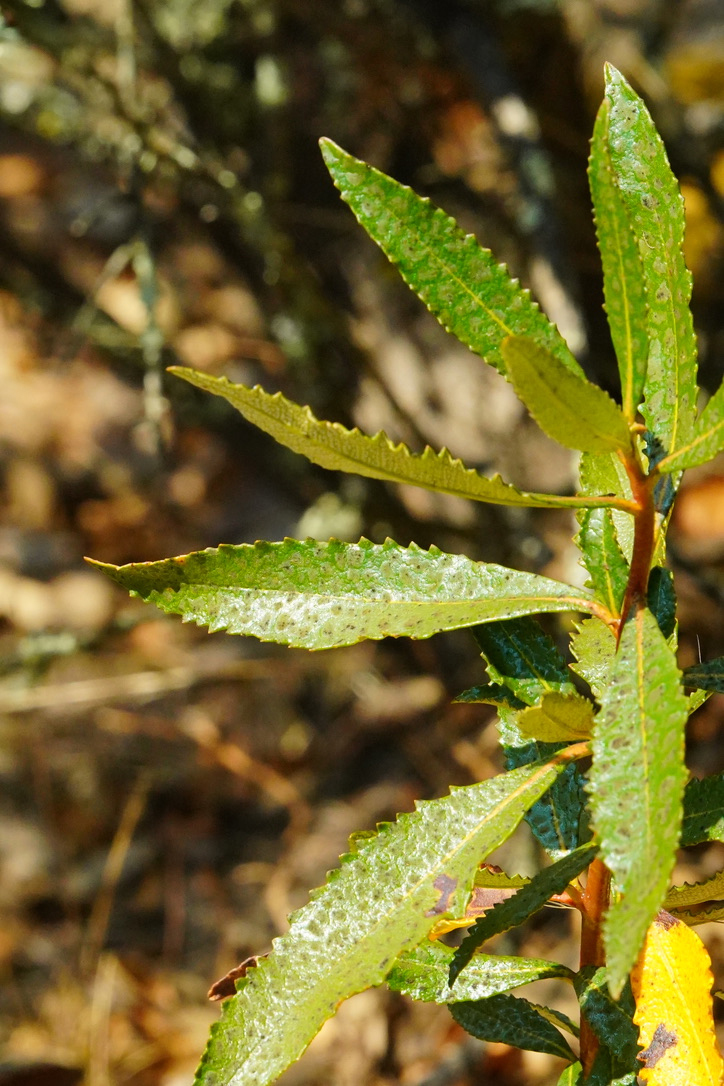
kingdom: Plantae
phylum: Tracheophyta
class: Magnoliopsida
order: Boraginales
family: Namaceae
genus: Eriodictyon
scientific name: Eriodictyon californicum
